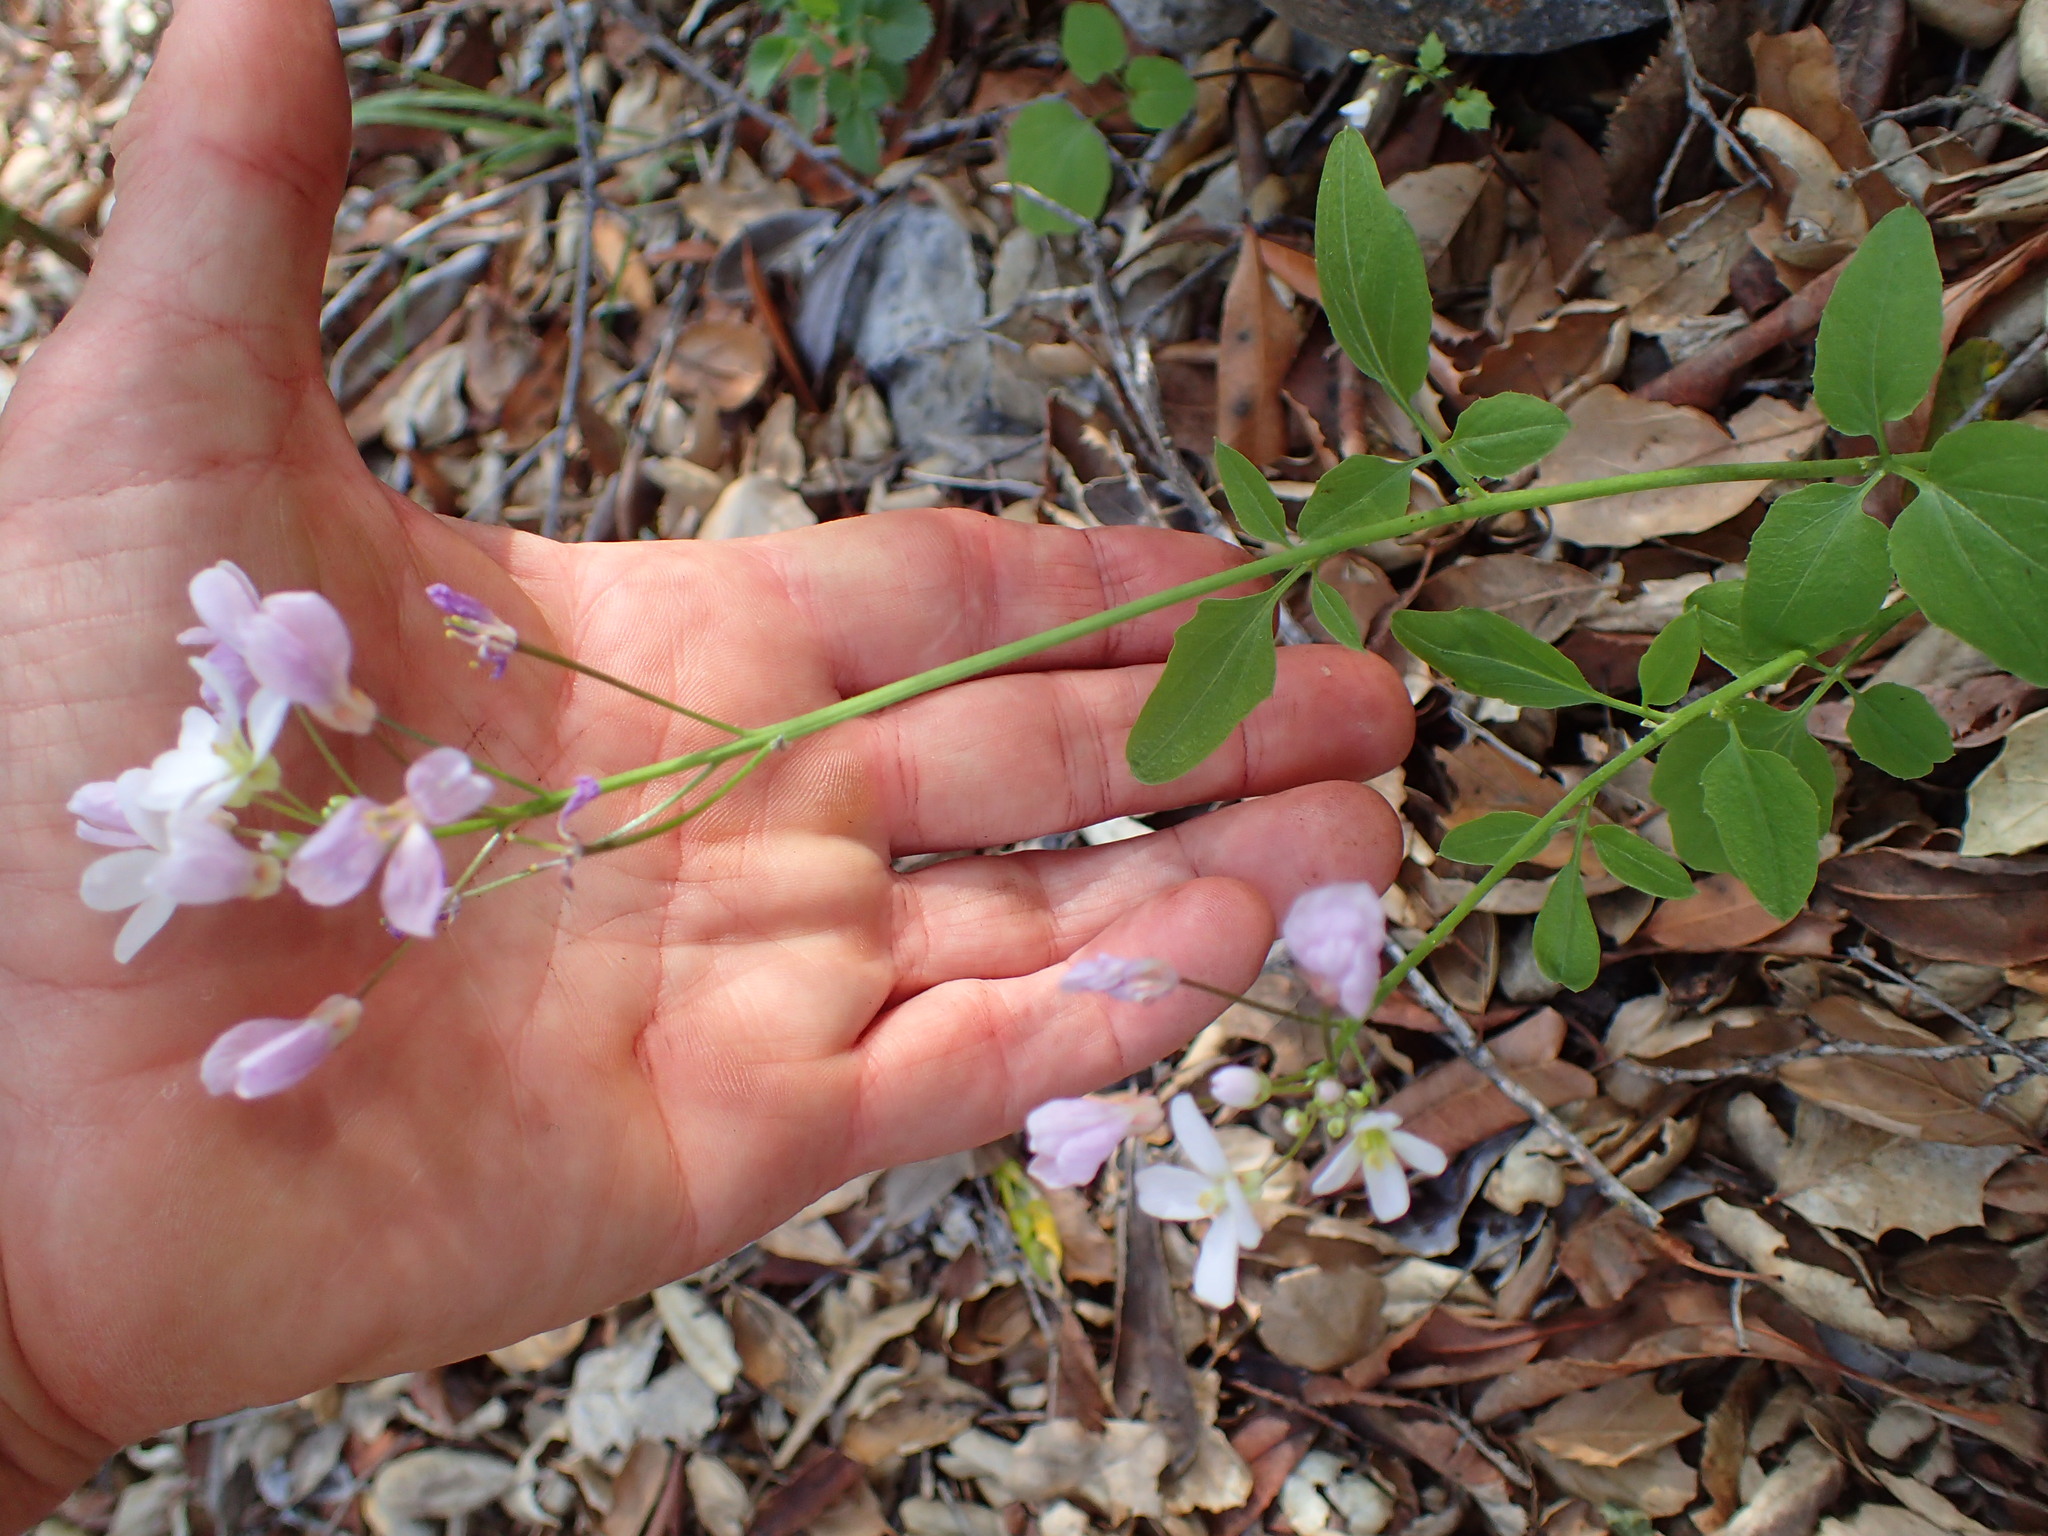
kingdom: Plantae
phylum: Tracheophyta
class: Magnoliopsida
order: Brassicales
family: Brassicaceae
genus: Cardamine
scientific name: Cardamine californica
